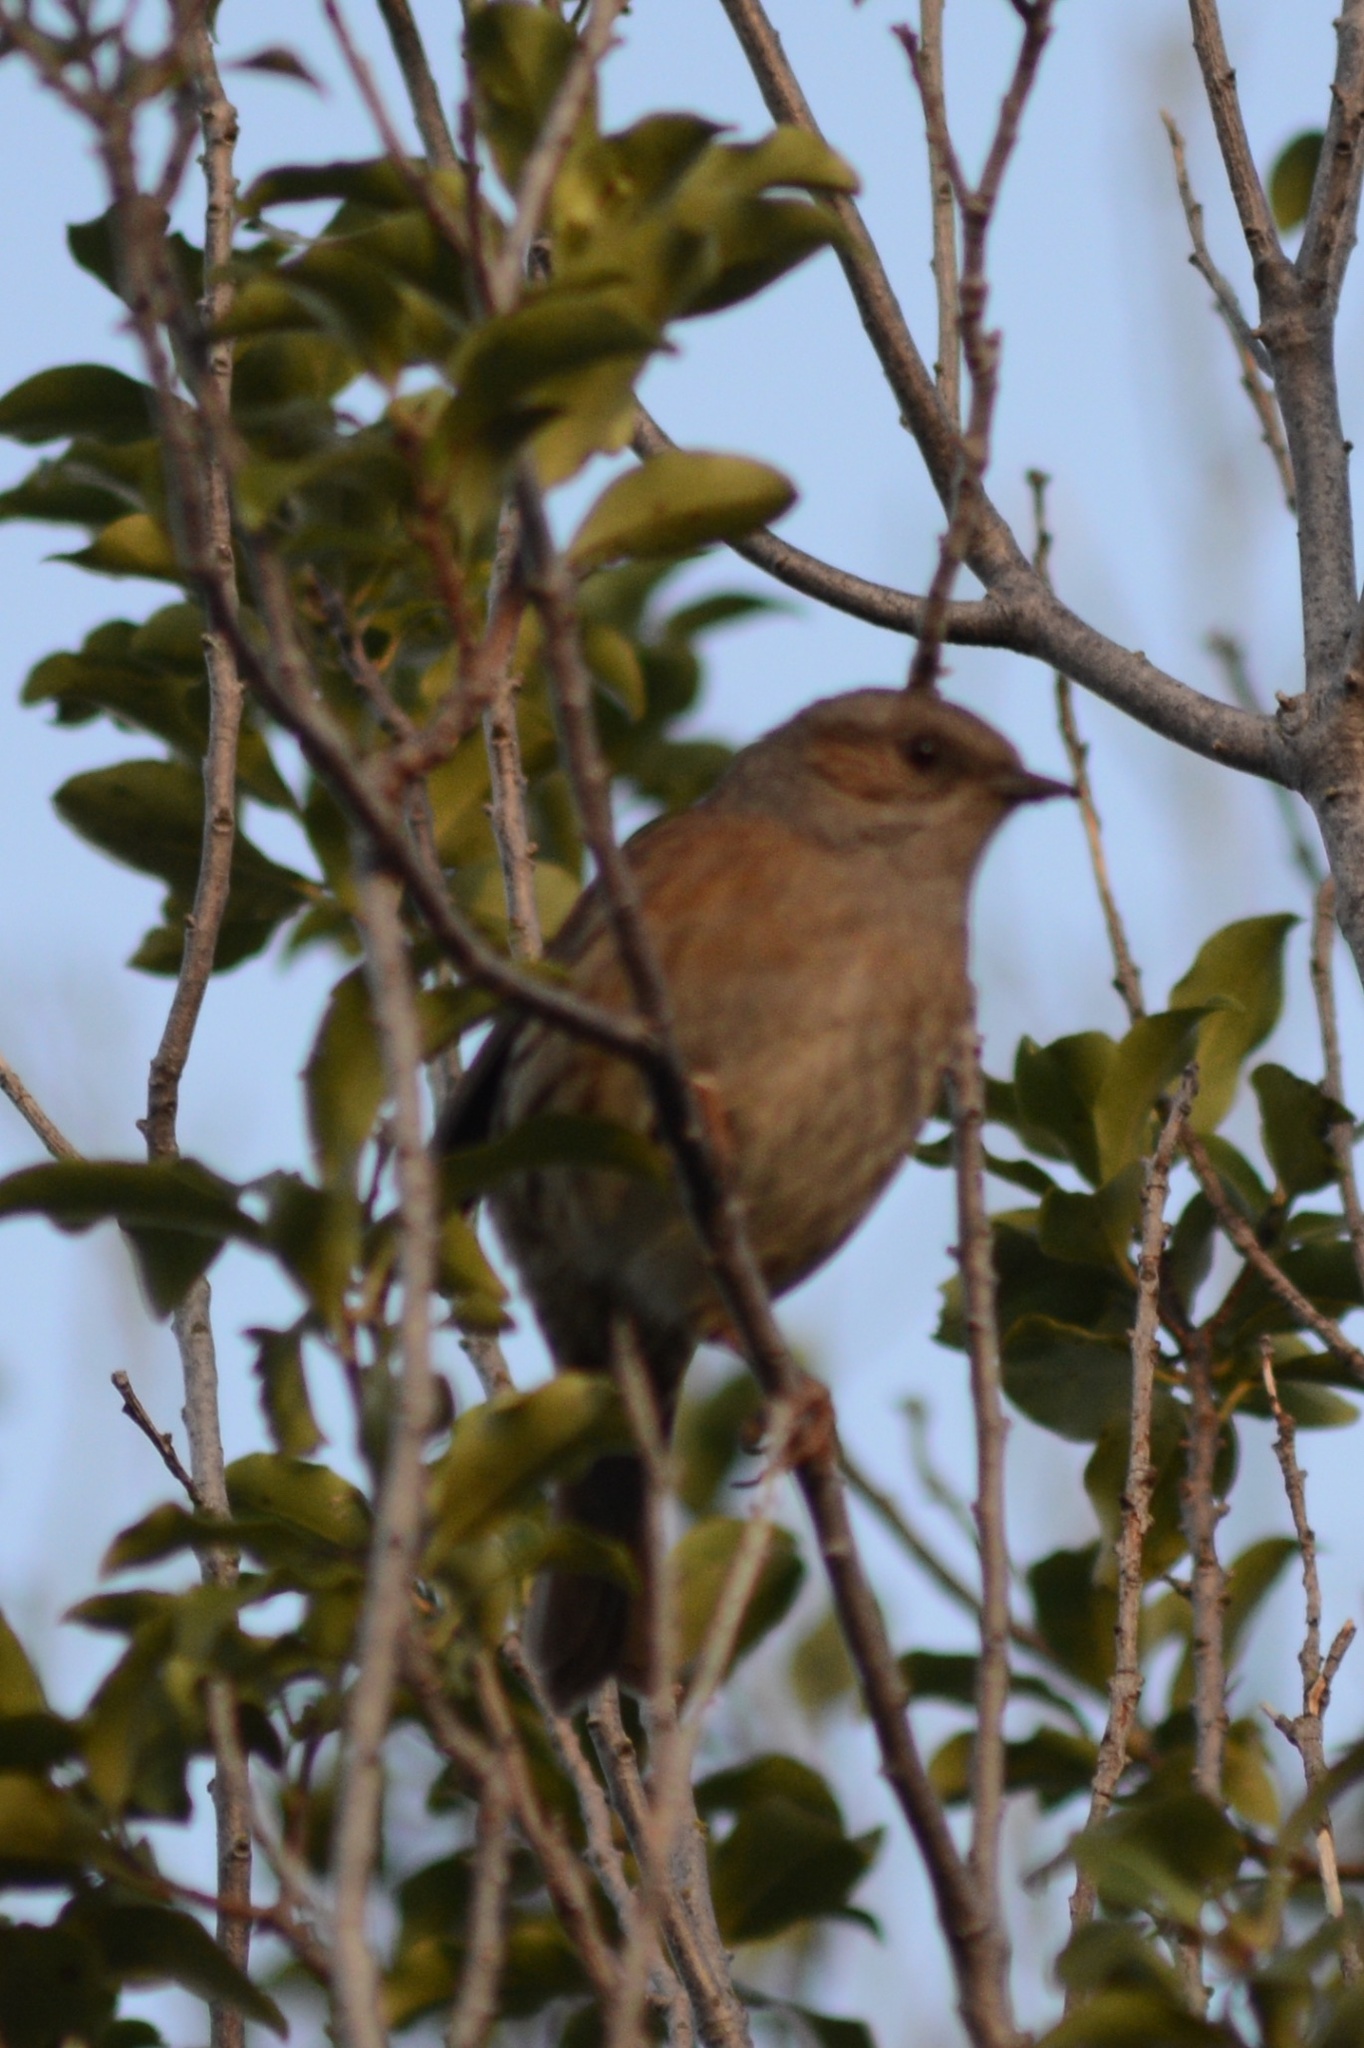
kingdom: Animalia
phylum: Chordata
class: Aves
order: Passeriformes
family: Prunellidae
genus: Prunella
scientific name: Prunella modularis
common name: Dunnock
